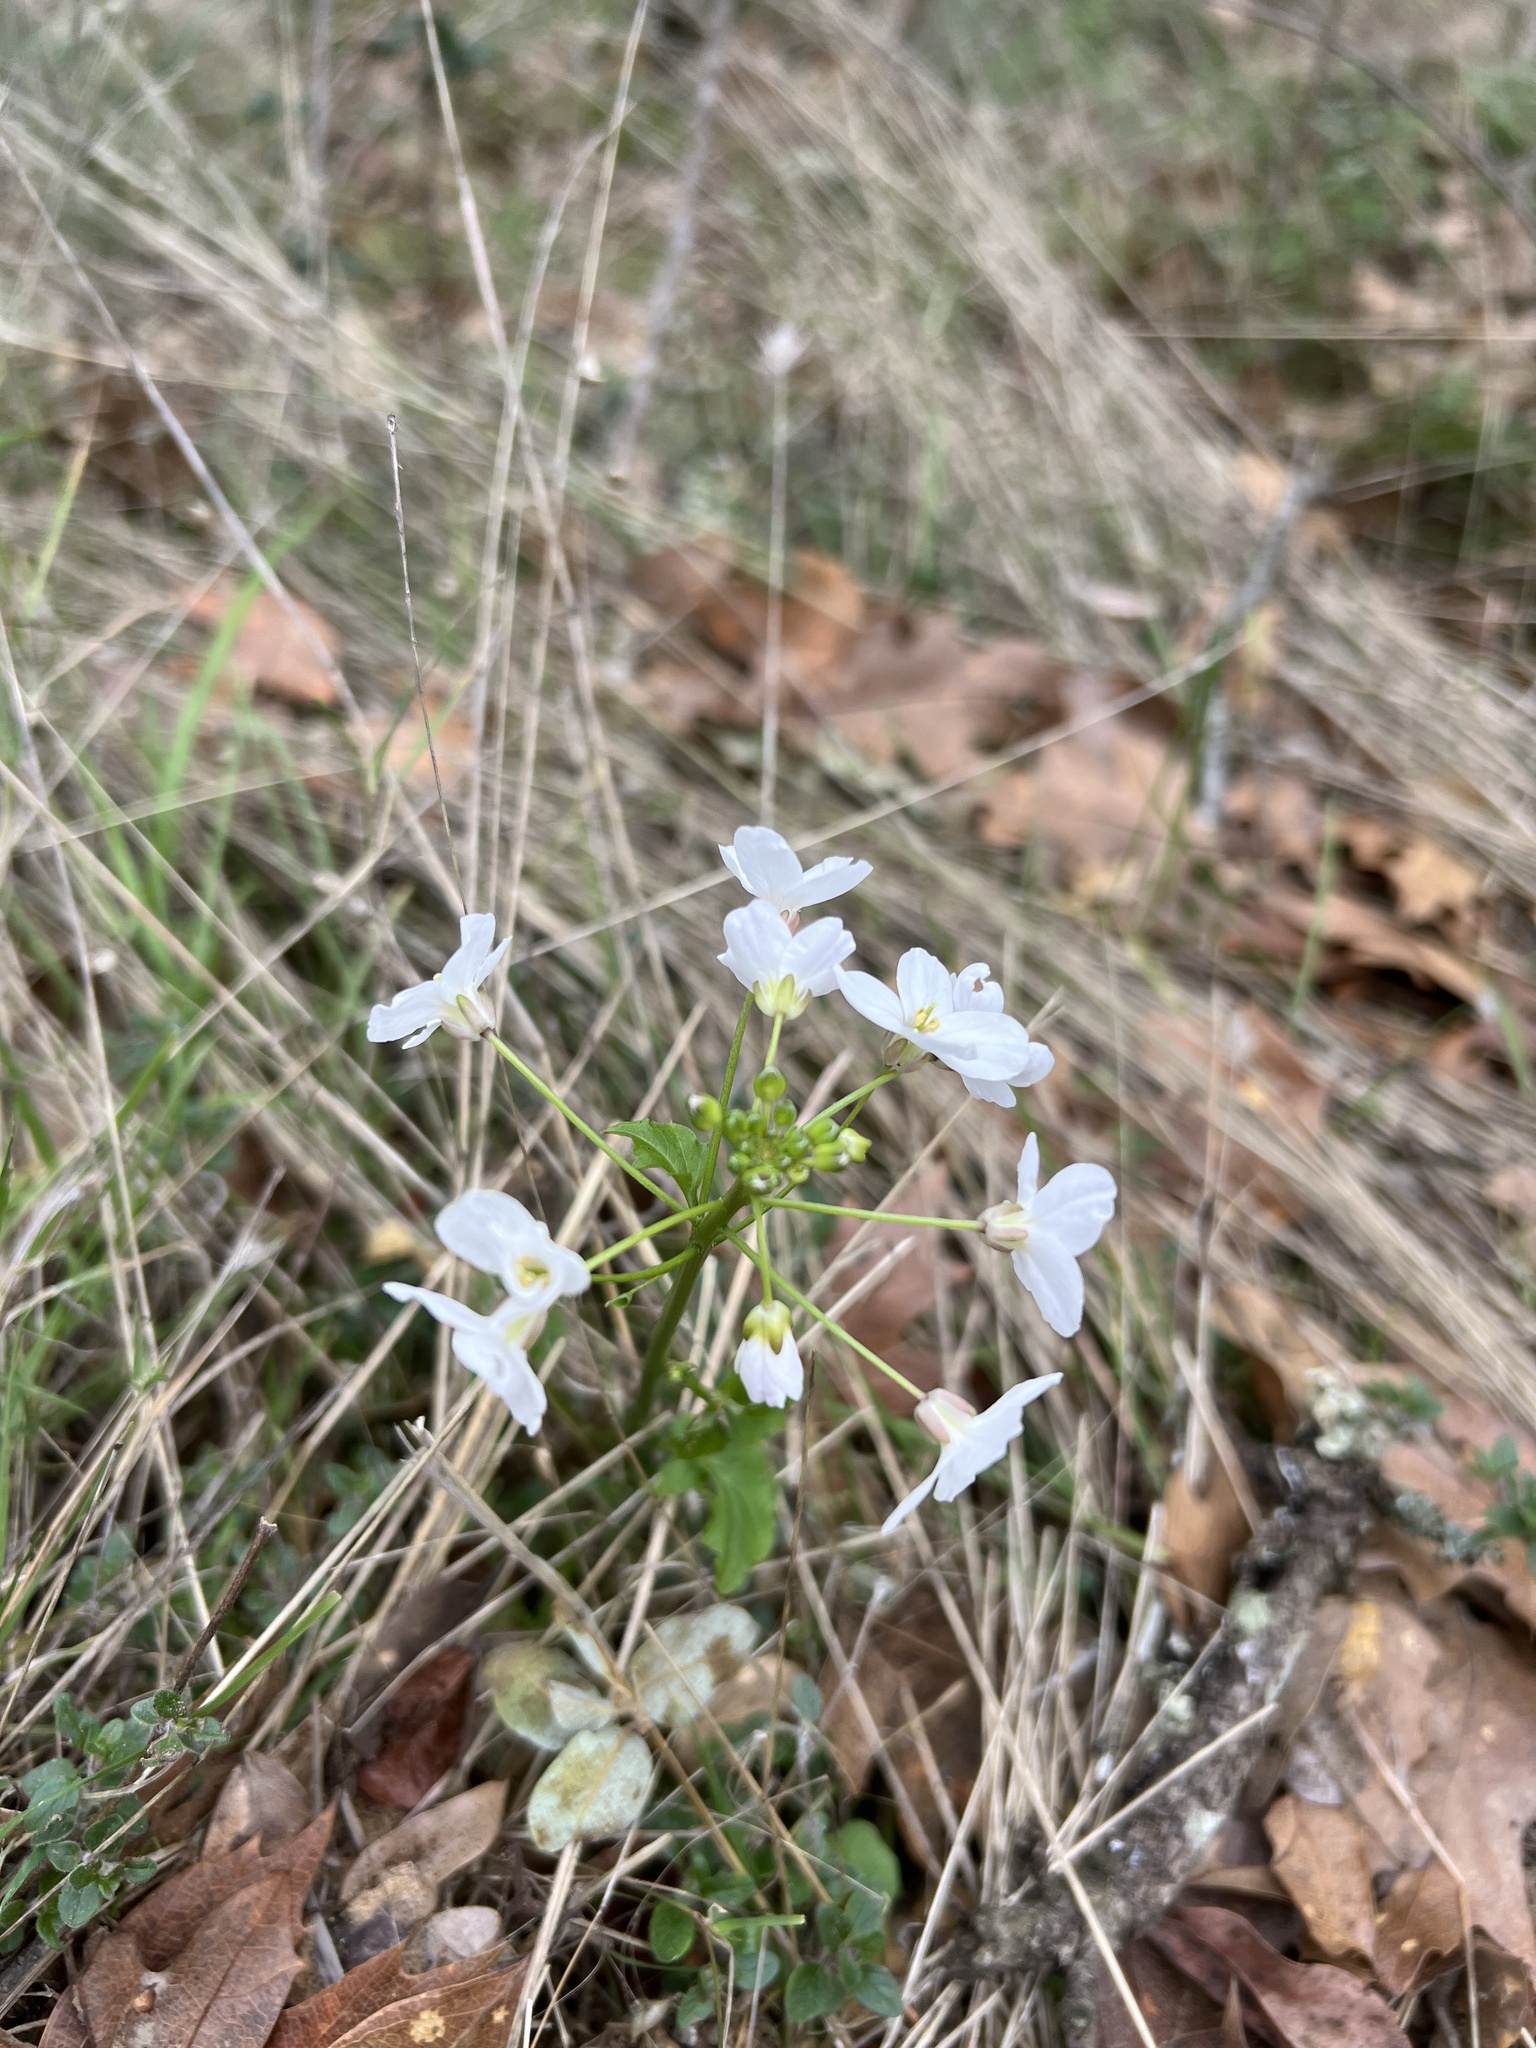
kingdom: Plantae
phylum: Tracheophyta
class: Magnoliopsida
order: Brassicales
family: Brassicaceae
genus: Cardamine
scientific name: Cardamine californica
